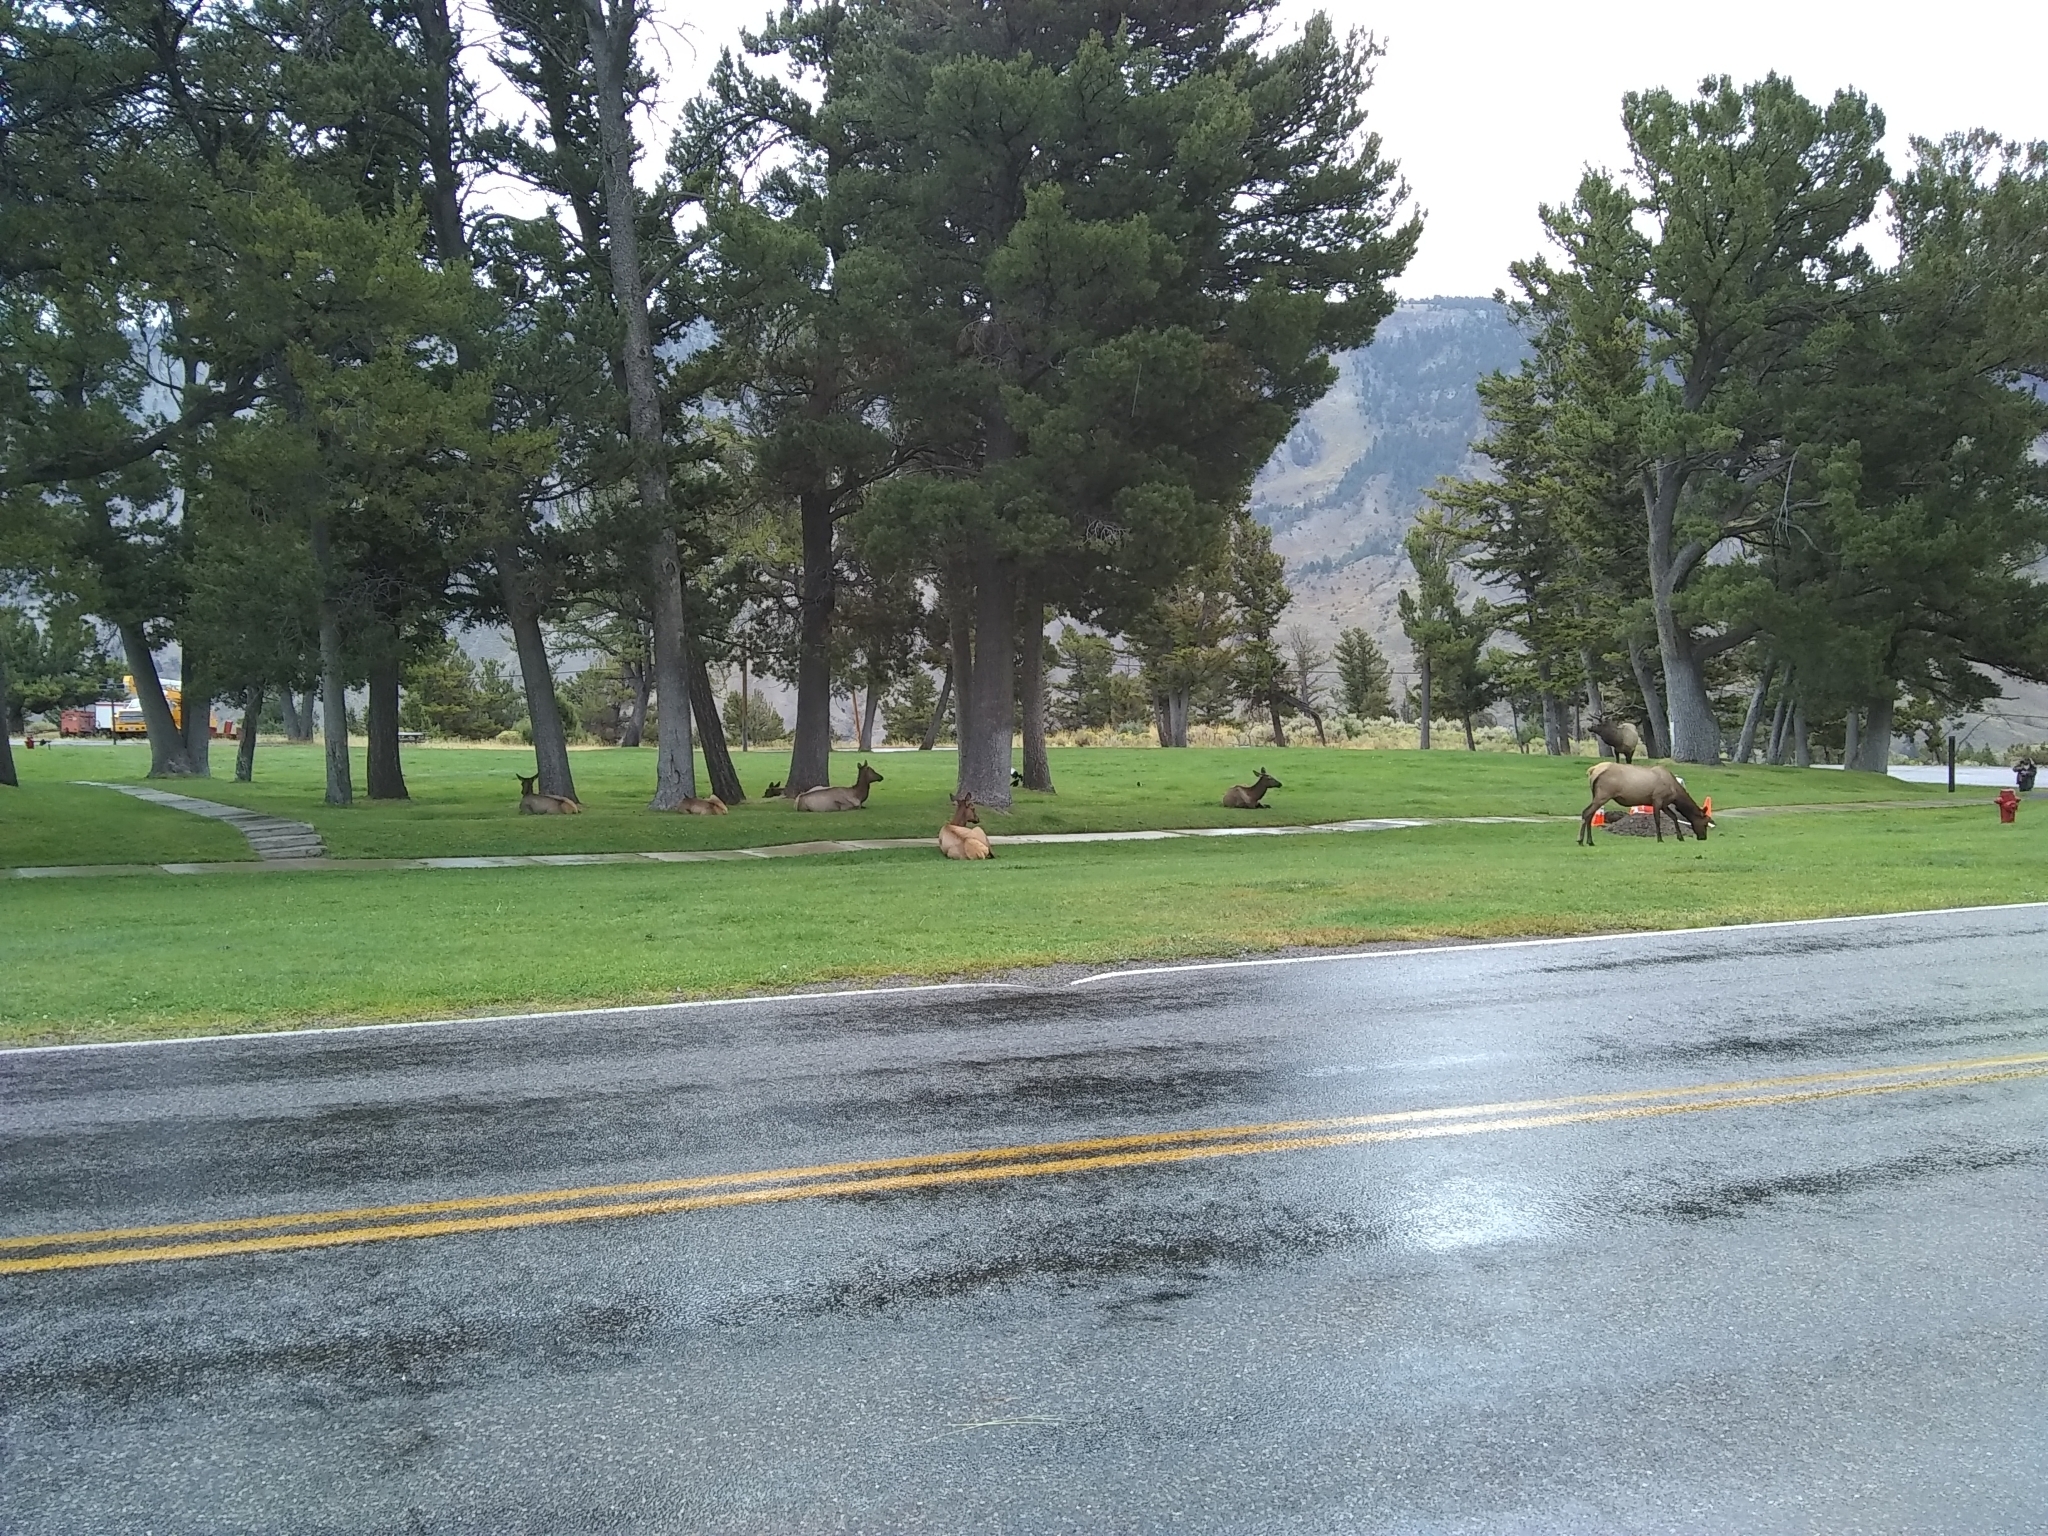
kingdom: Animalia
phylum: Chordata
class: Mammalia
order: Artiodactyla
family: Cervidae
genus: Cervus
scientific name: Cervus elaphus
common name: Red deer
